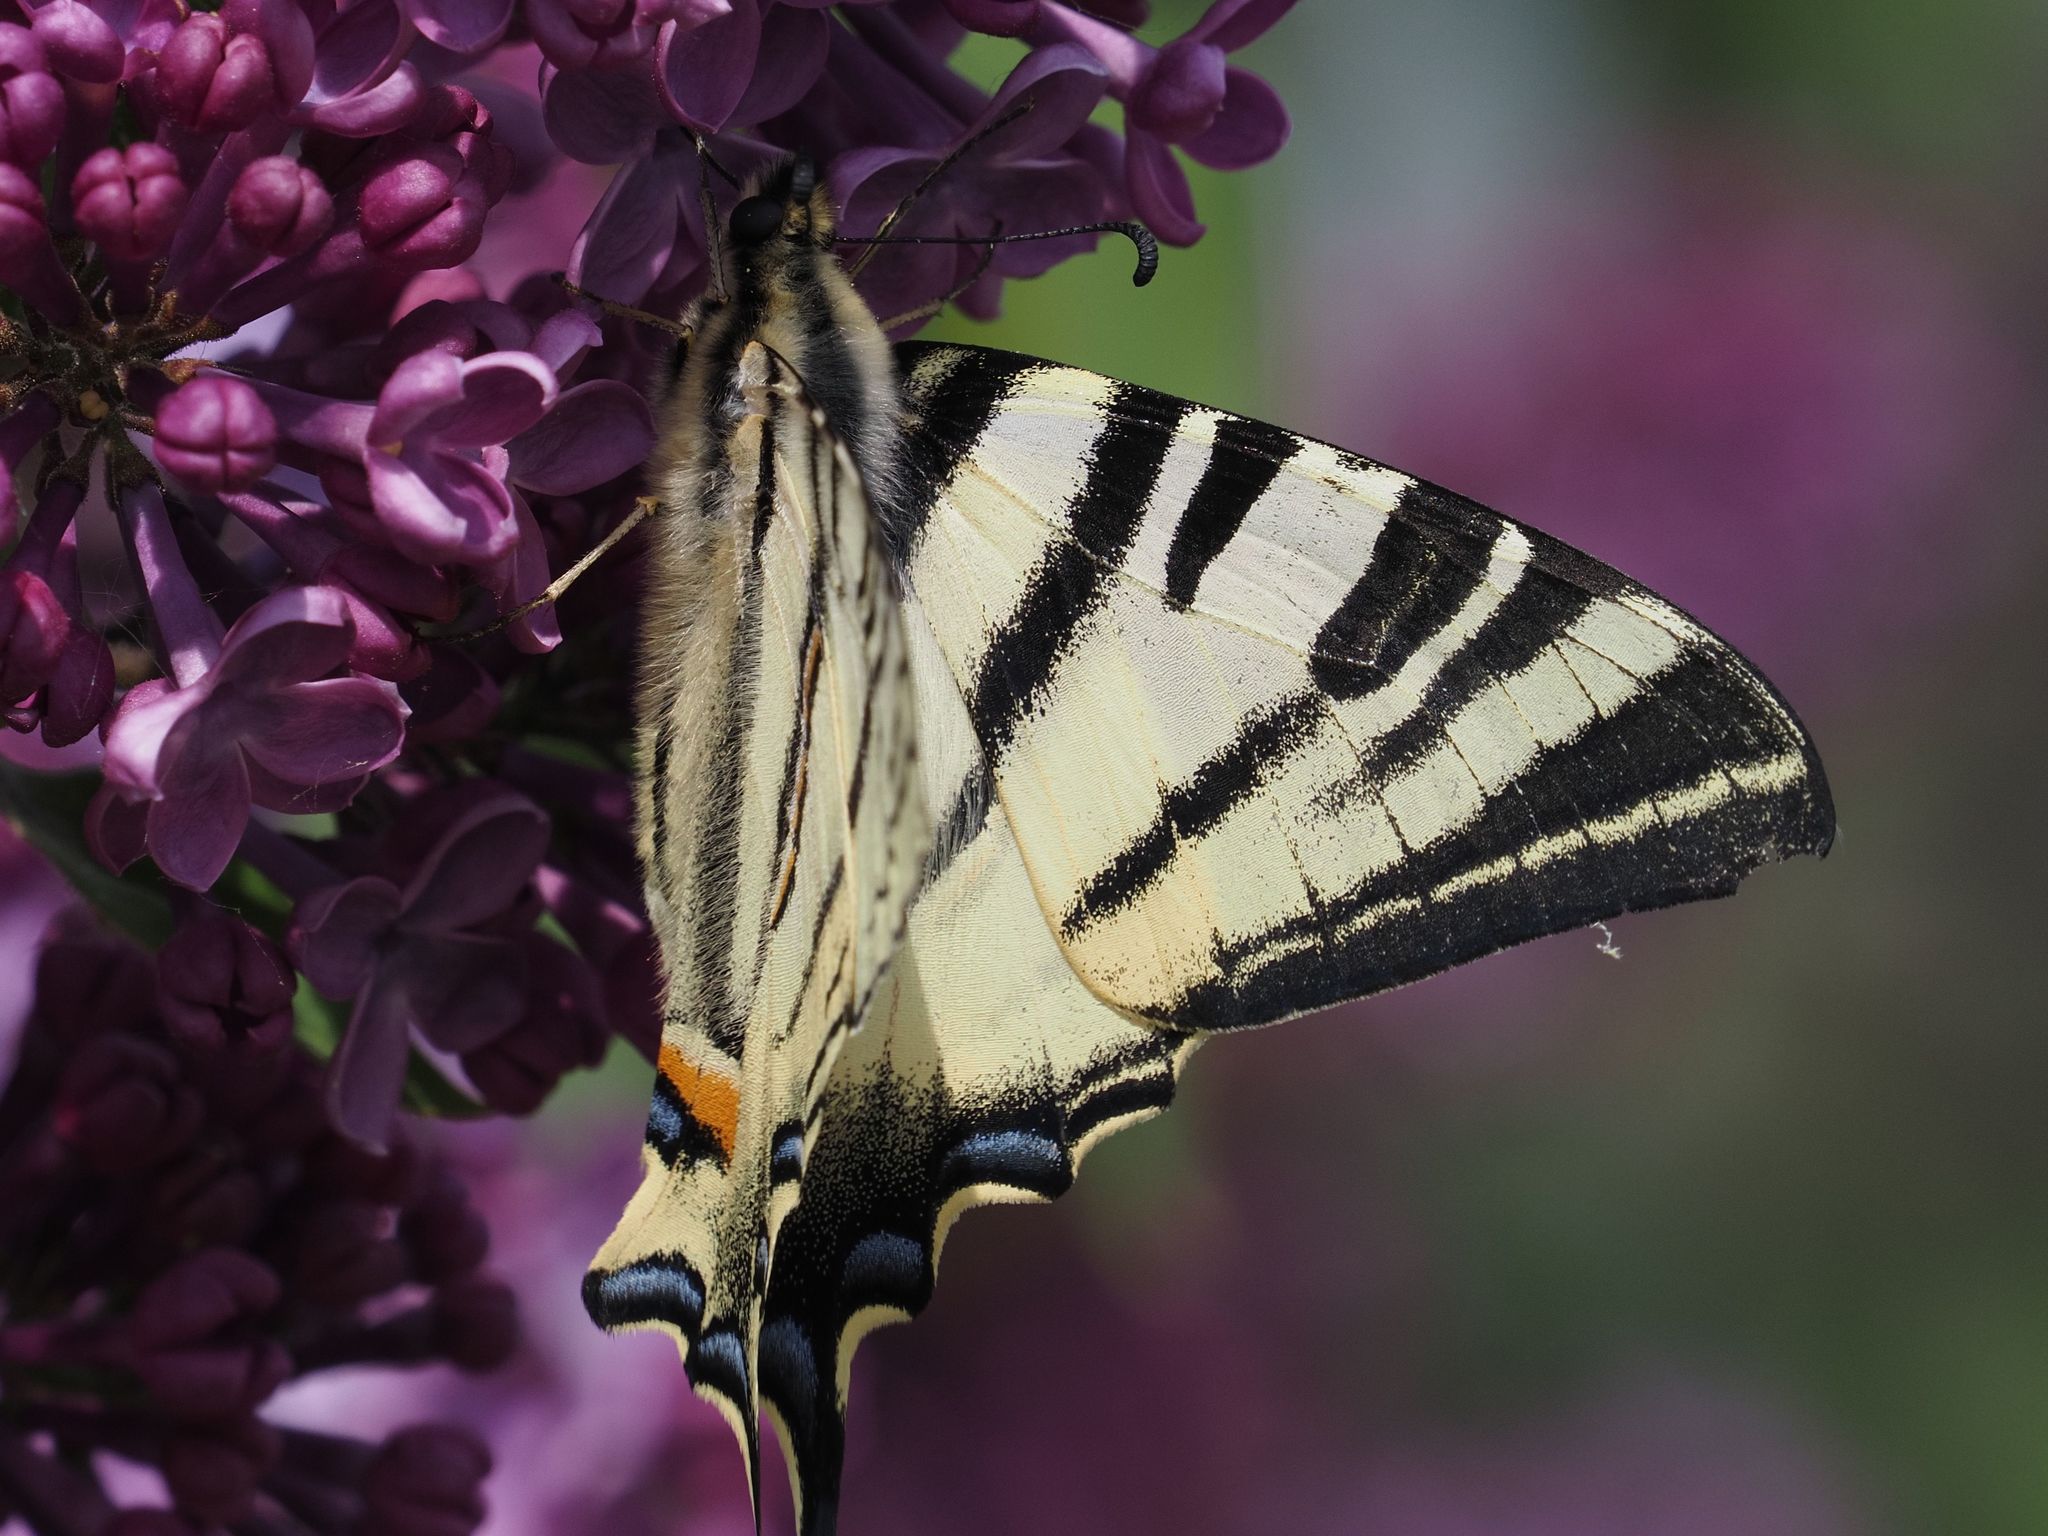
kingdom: Animalia
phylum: Arthropoda
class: Insecta
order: Lepidoptera
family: Papilionidae
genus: Iphiclides
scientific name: Iphiclides podalirius
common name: Scarce swallowtail
